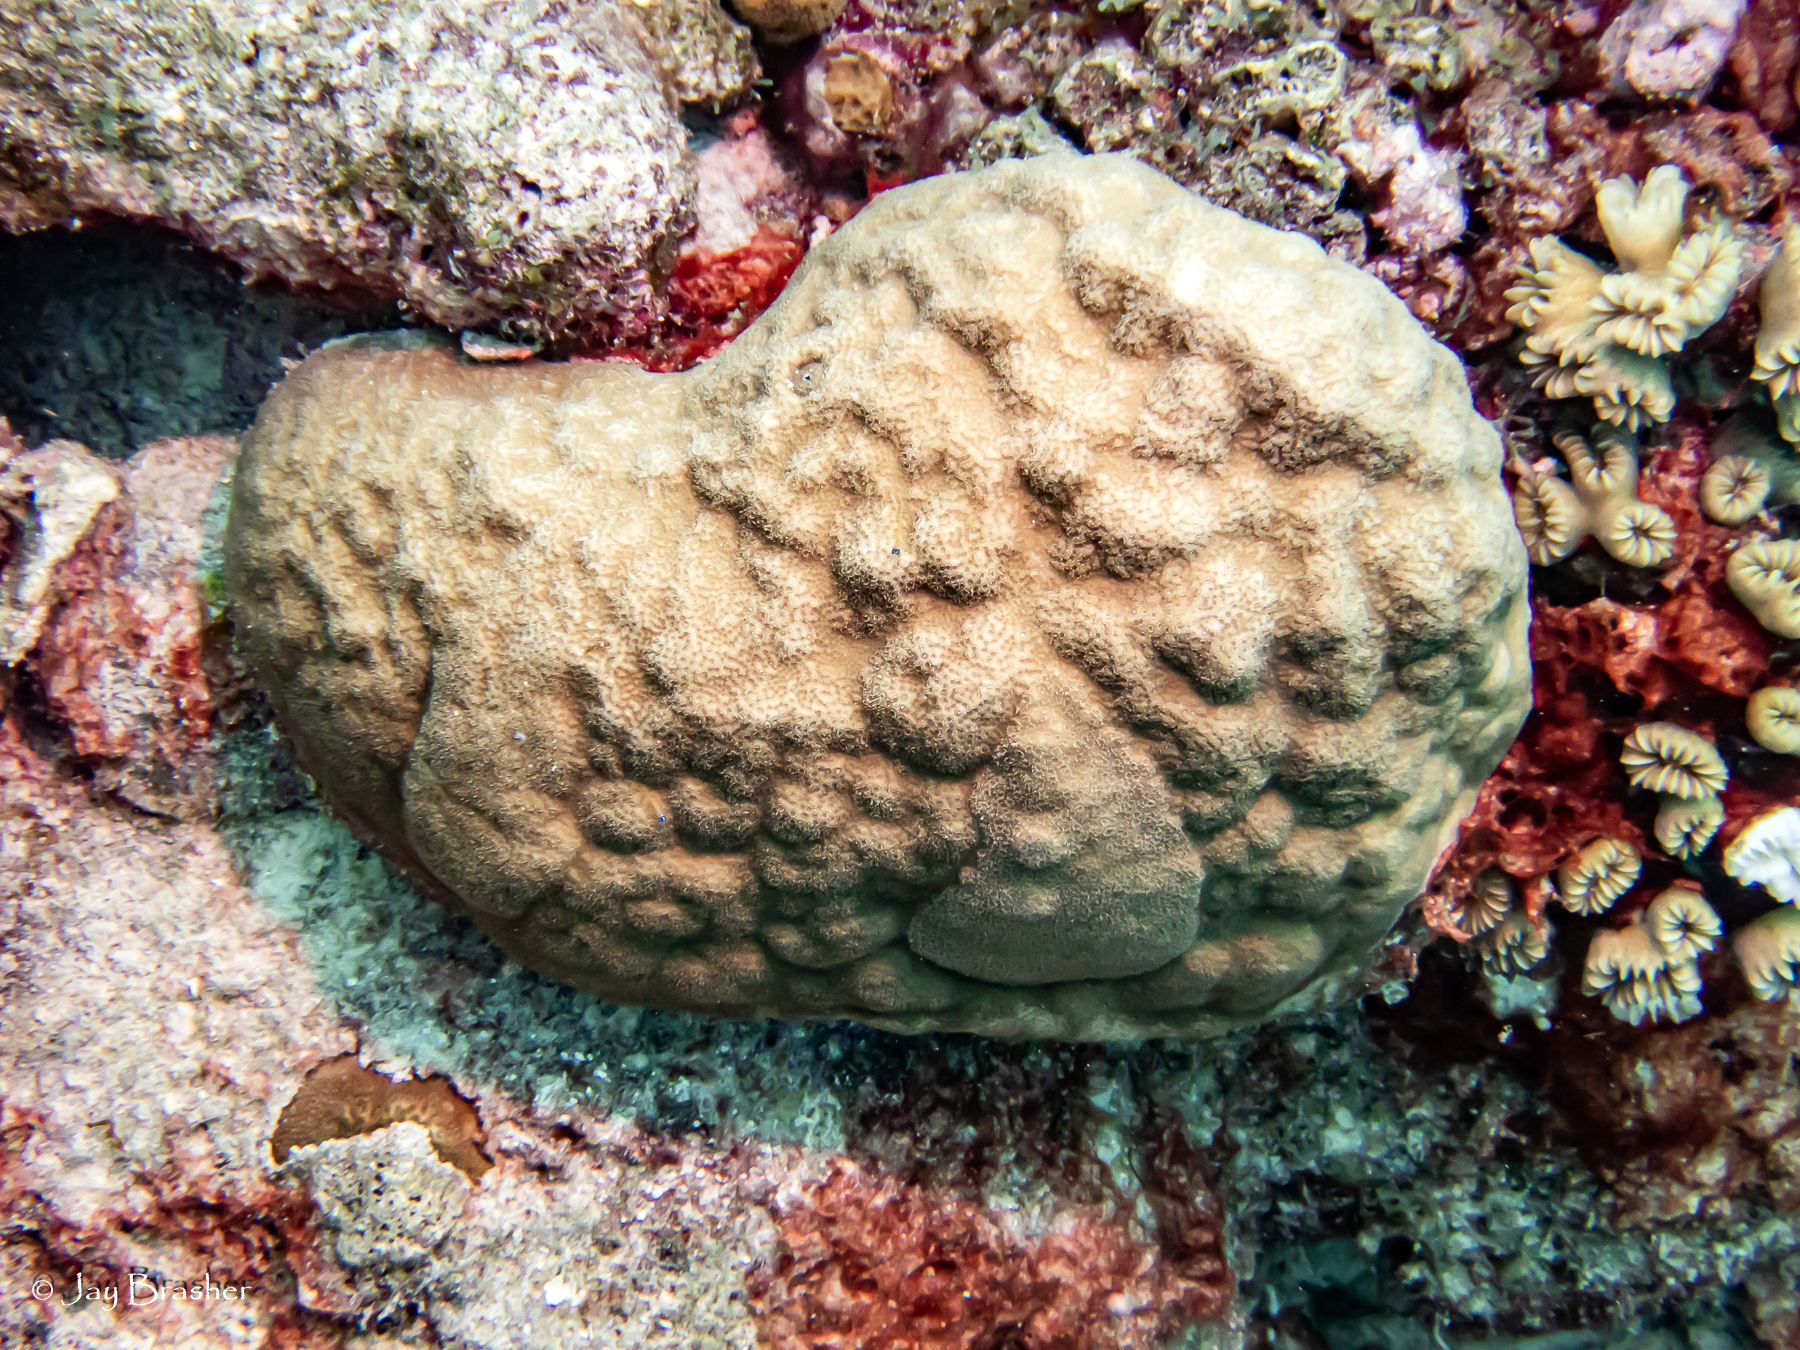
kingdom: Animalia
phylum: Cnidaria
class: Anthozoa
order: Scleractinia
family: Poritidae
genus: Porites
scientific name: Porites astreoides
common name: Mustard hill coral
